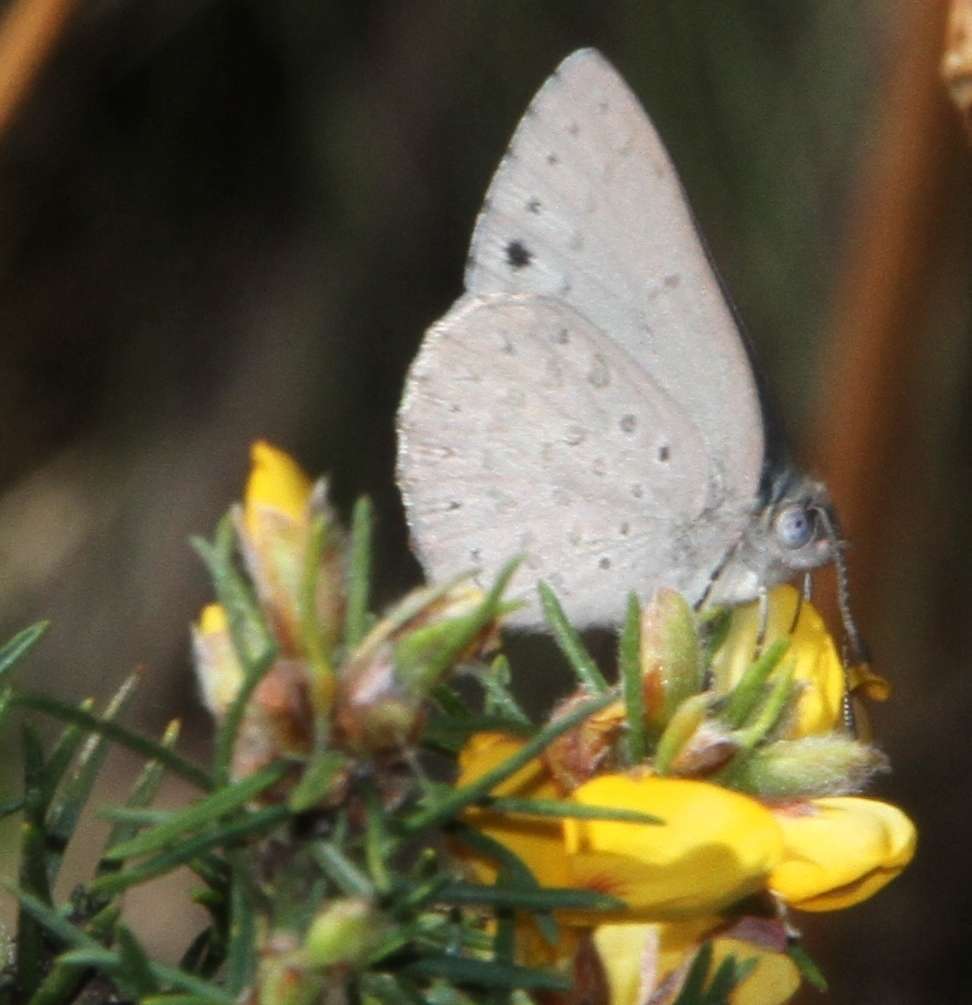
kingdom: Animalia
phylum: Arthropoda
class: Insecta
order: Lepidoptera
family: Lycaenidae
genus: Candalides
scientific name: Candalides
